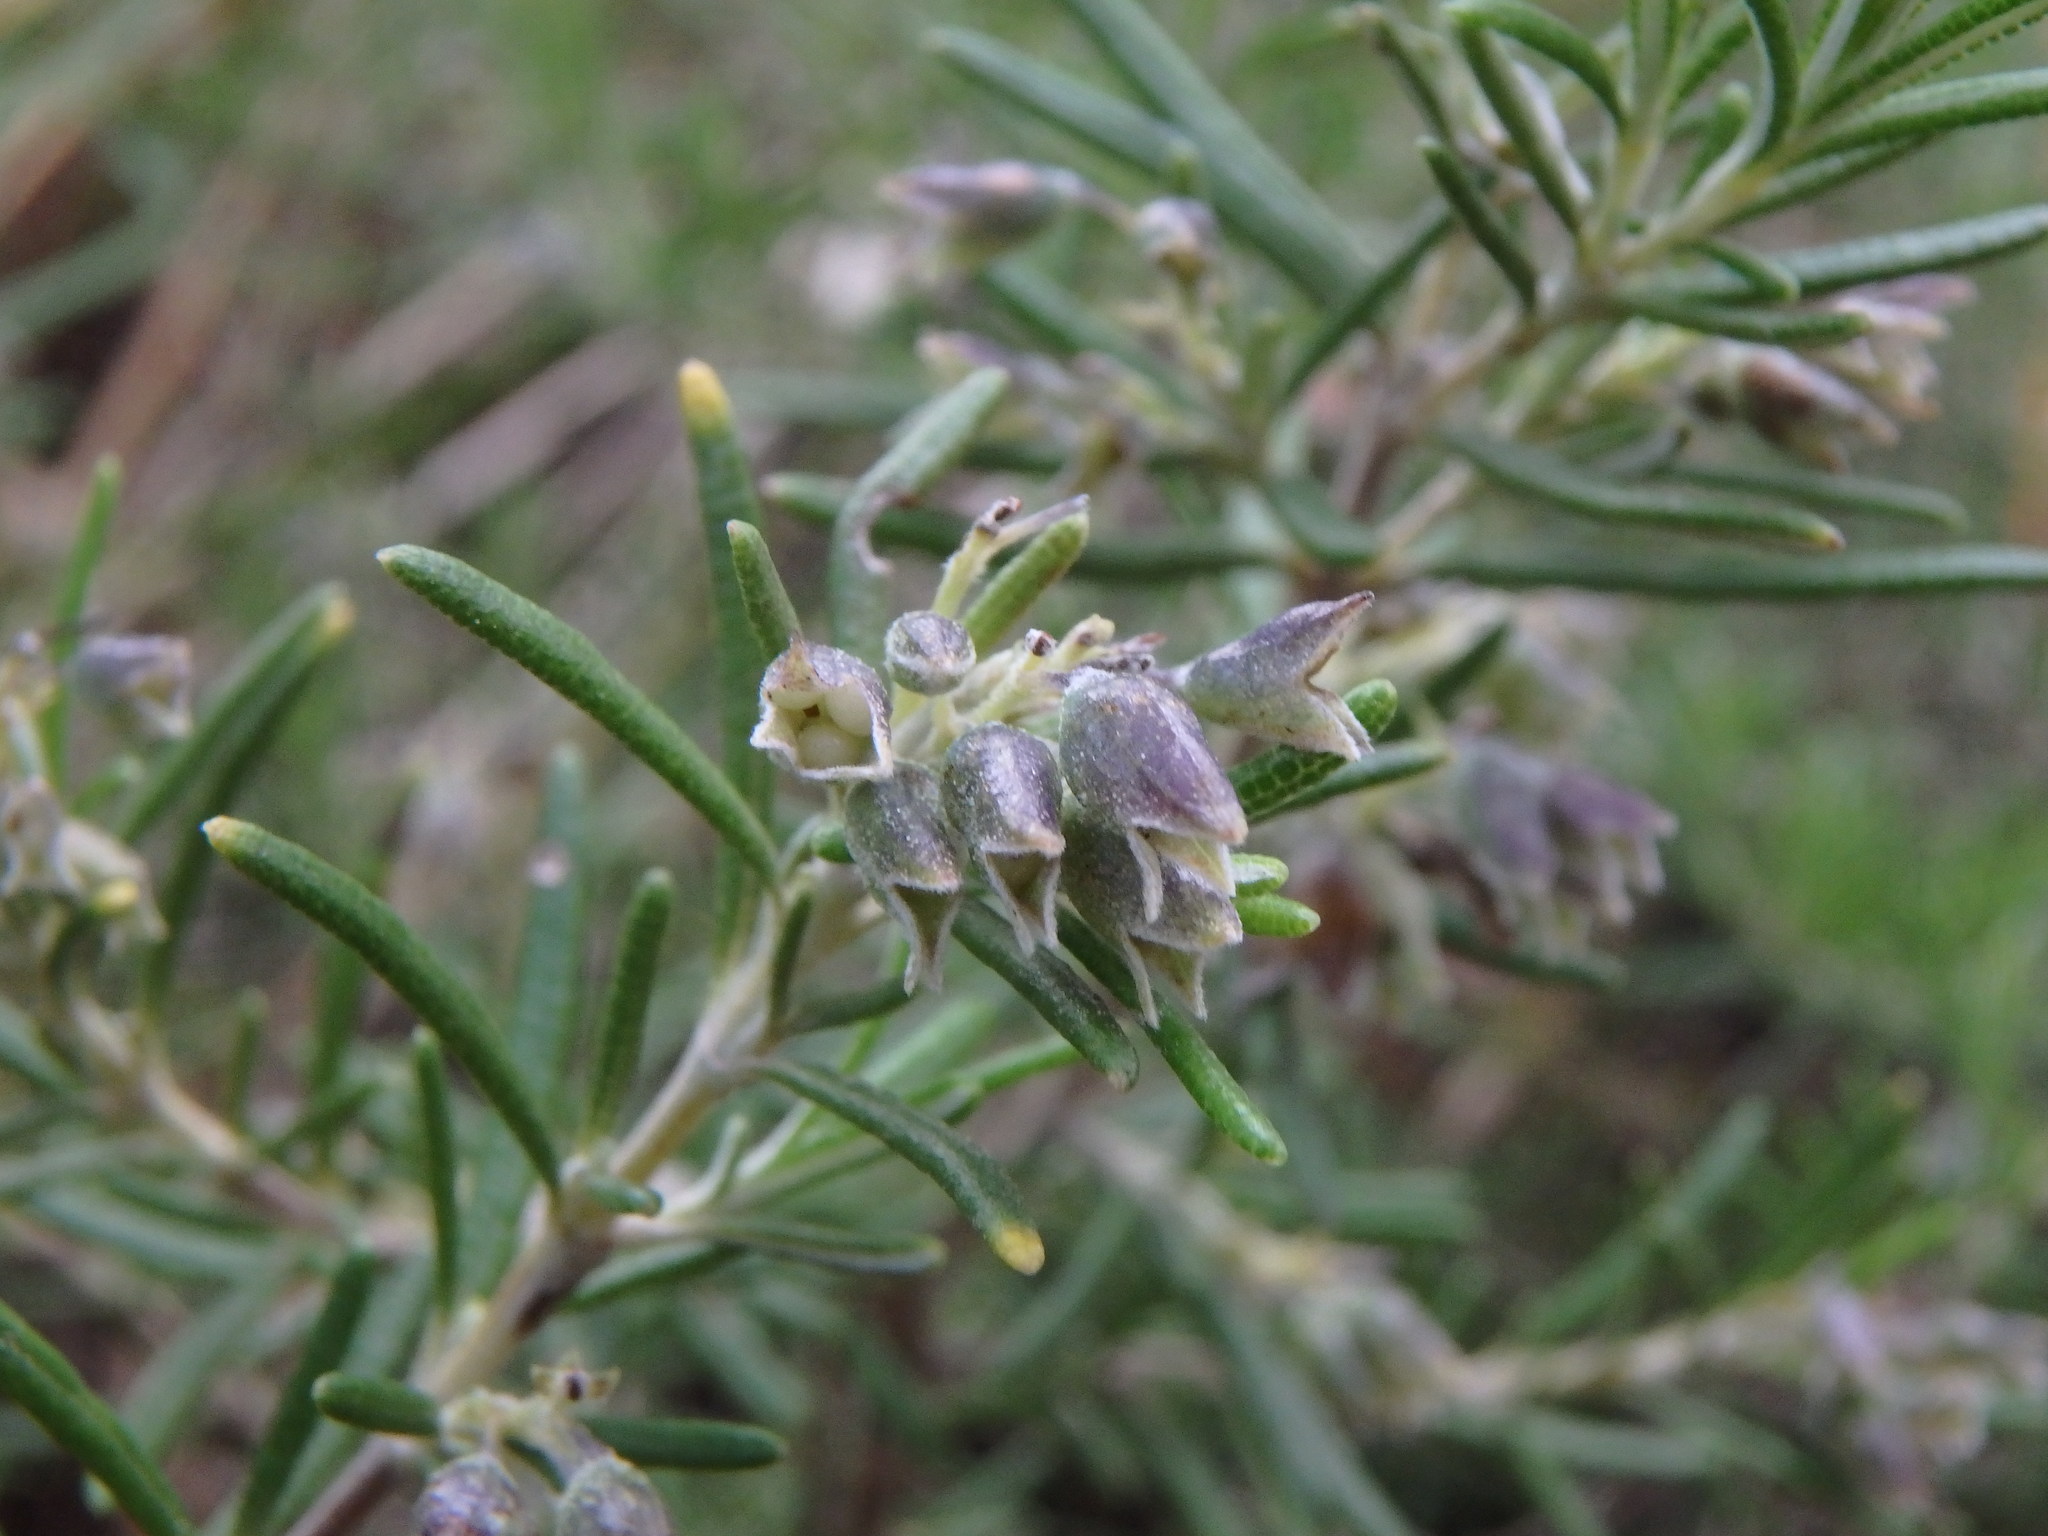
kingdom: Plantae
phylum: Tracheophyta
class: Magnoliopsida
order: Lamiales
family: Lamiaceae
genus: Salvia
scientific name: Salvia rosmarinus
